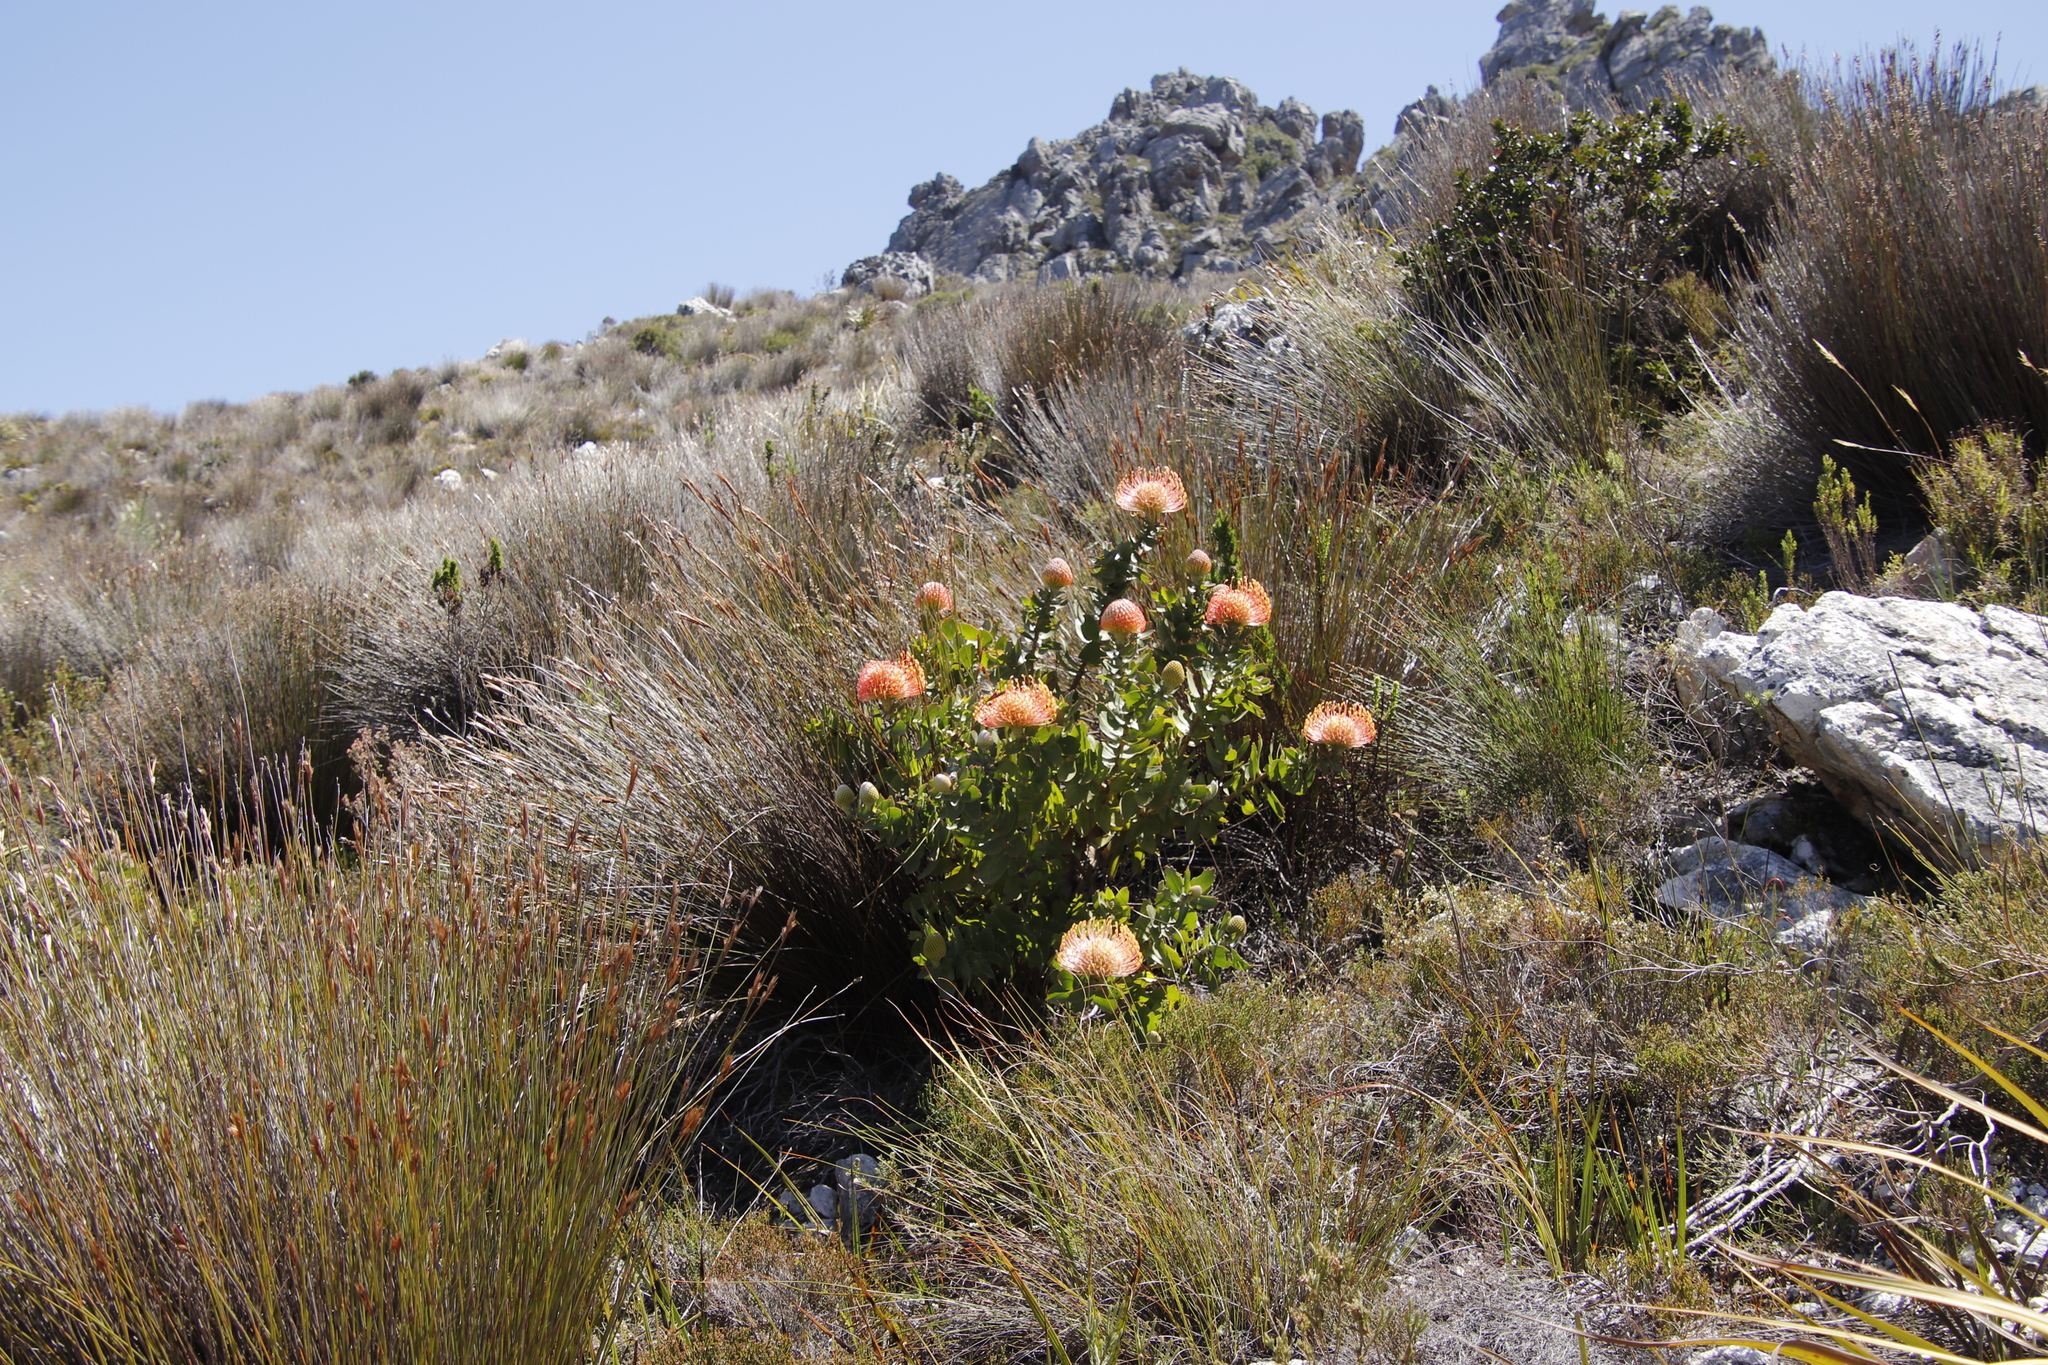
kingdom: Plantae
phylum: Tracheophyta
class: Magnoliopsida
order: Proteales
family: Proteaceae
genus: Leucospermum
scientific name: Leucospermum cordifolium
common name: Red pincushion-protea
